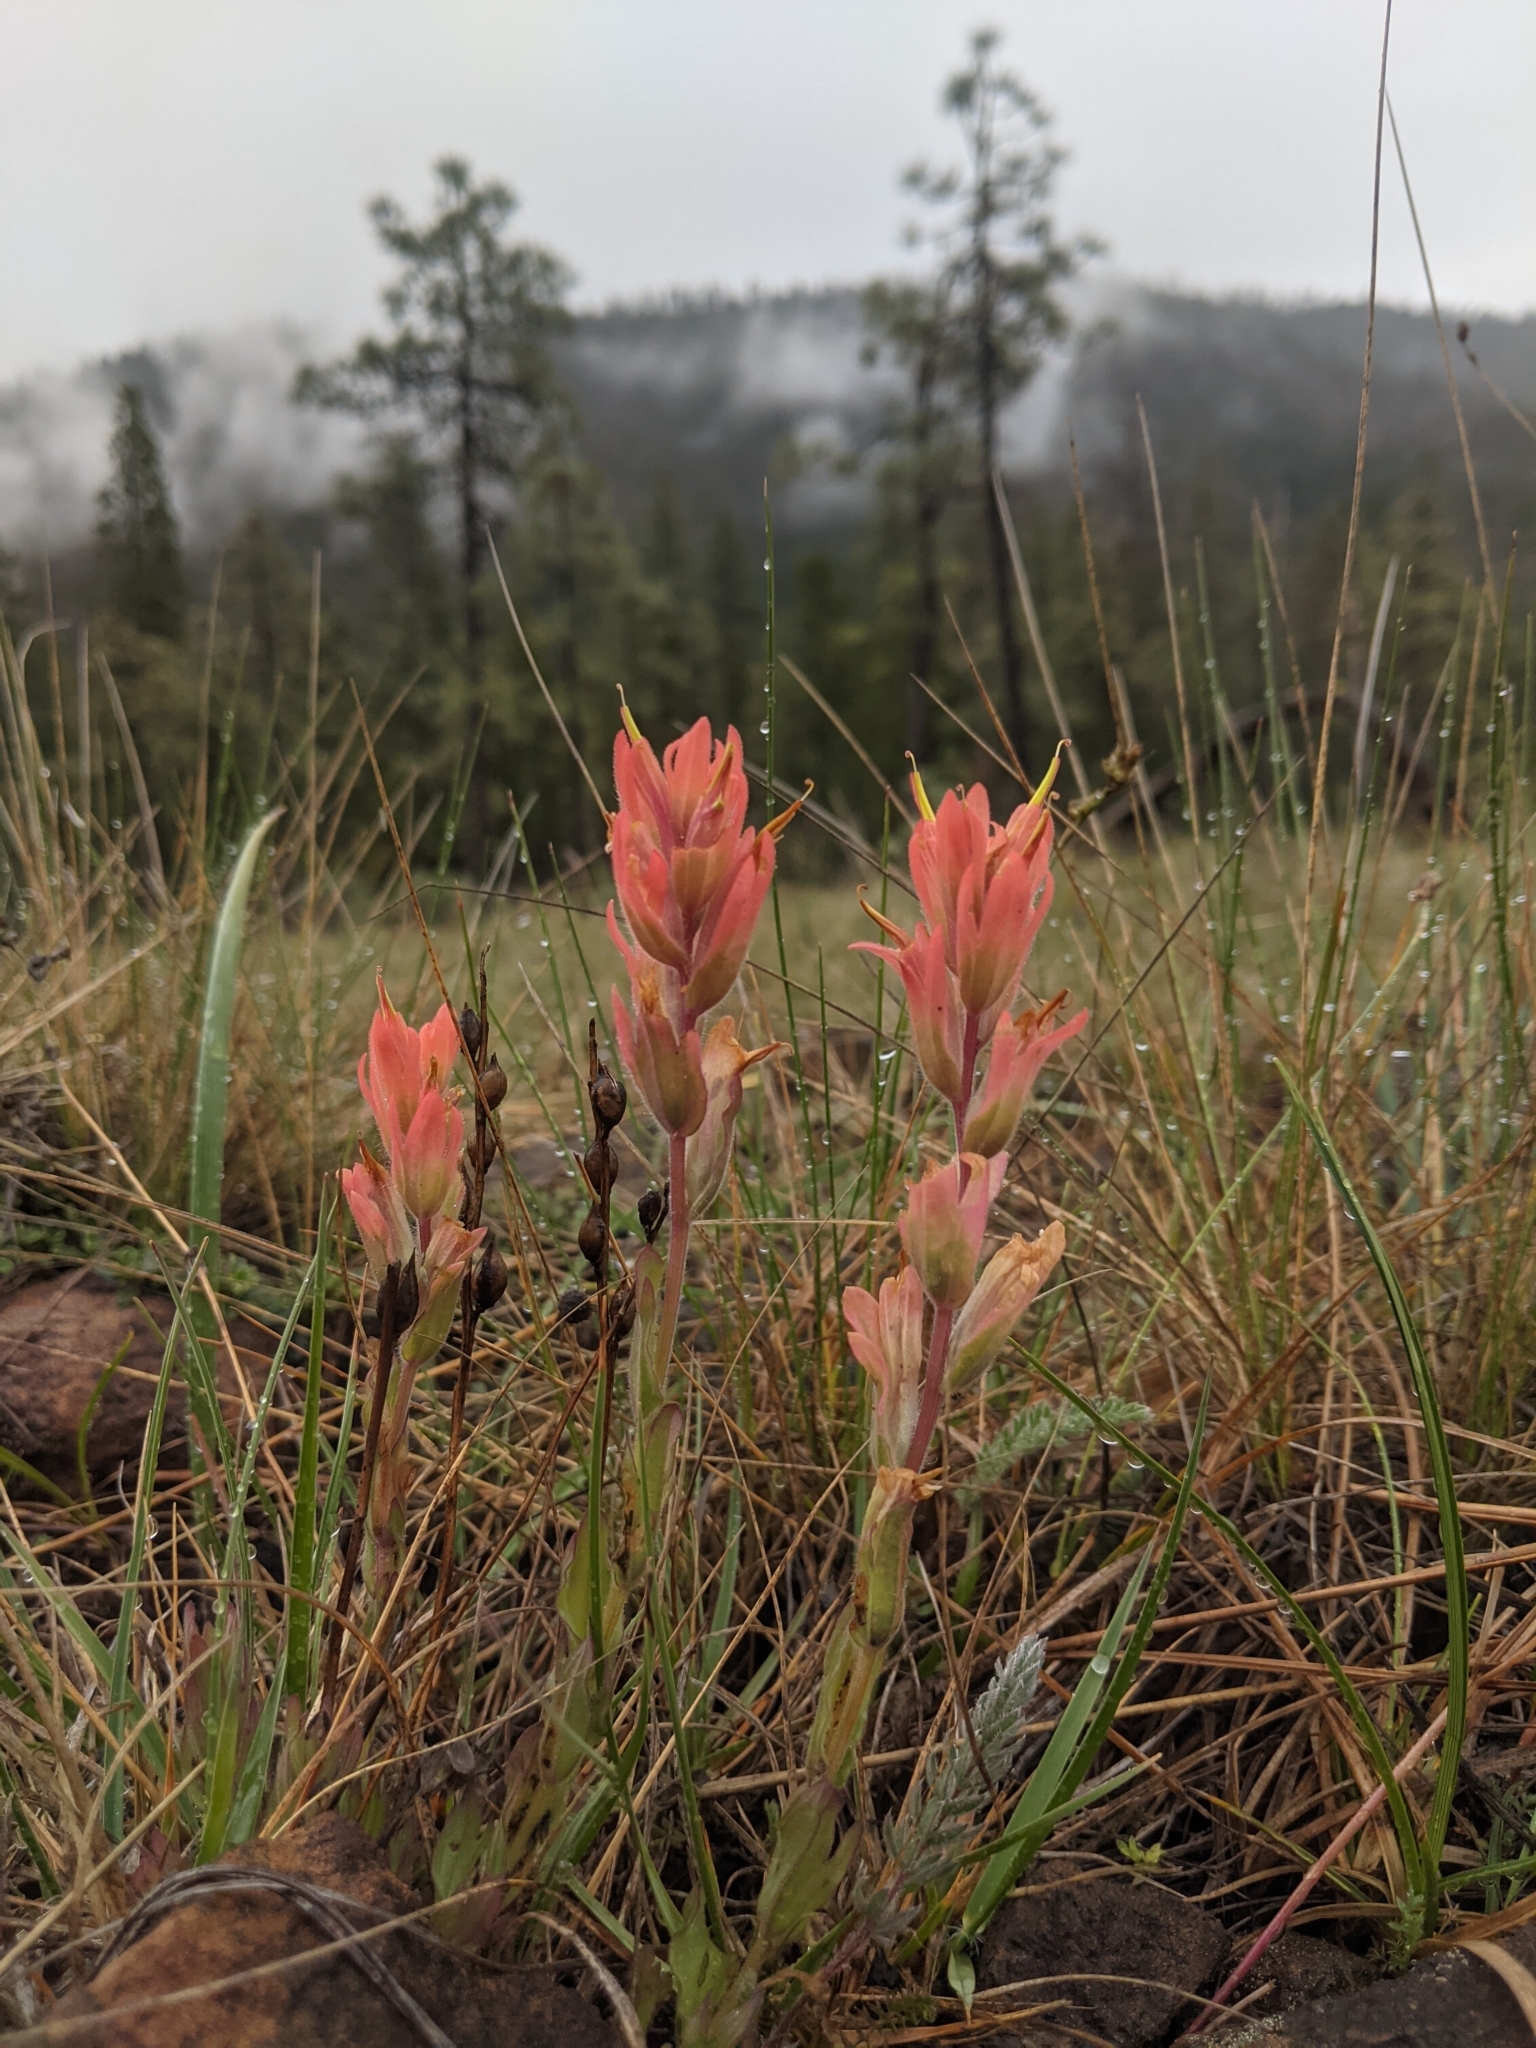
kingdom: Plantae
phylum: Tracheophyta
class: Magnoliopsida
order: Lamiales
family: Orobanchaceae
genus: Castilleja
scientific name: Castilleja brevilobata
